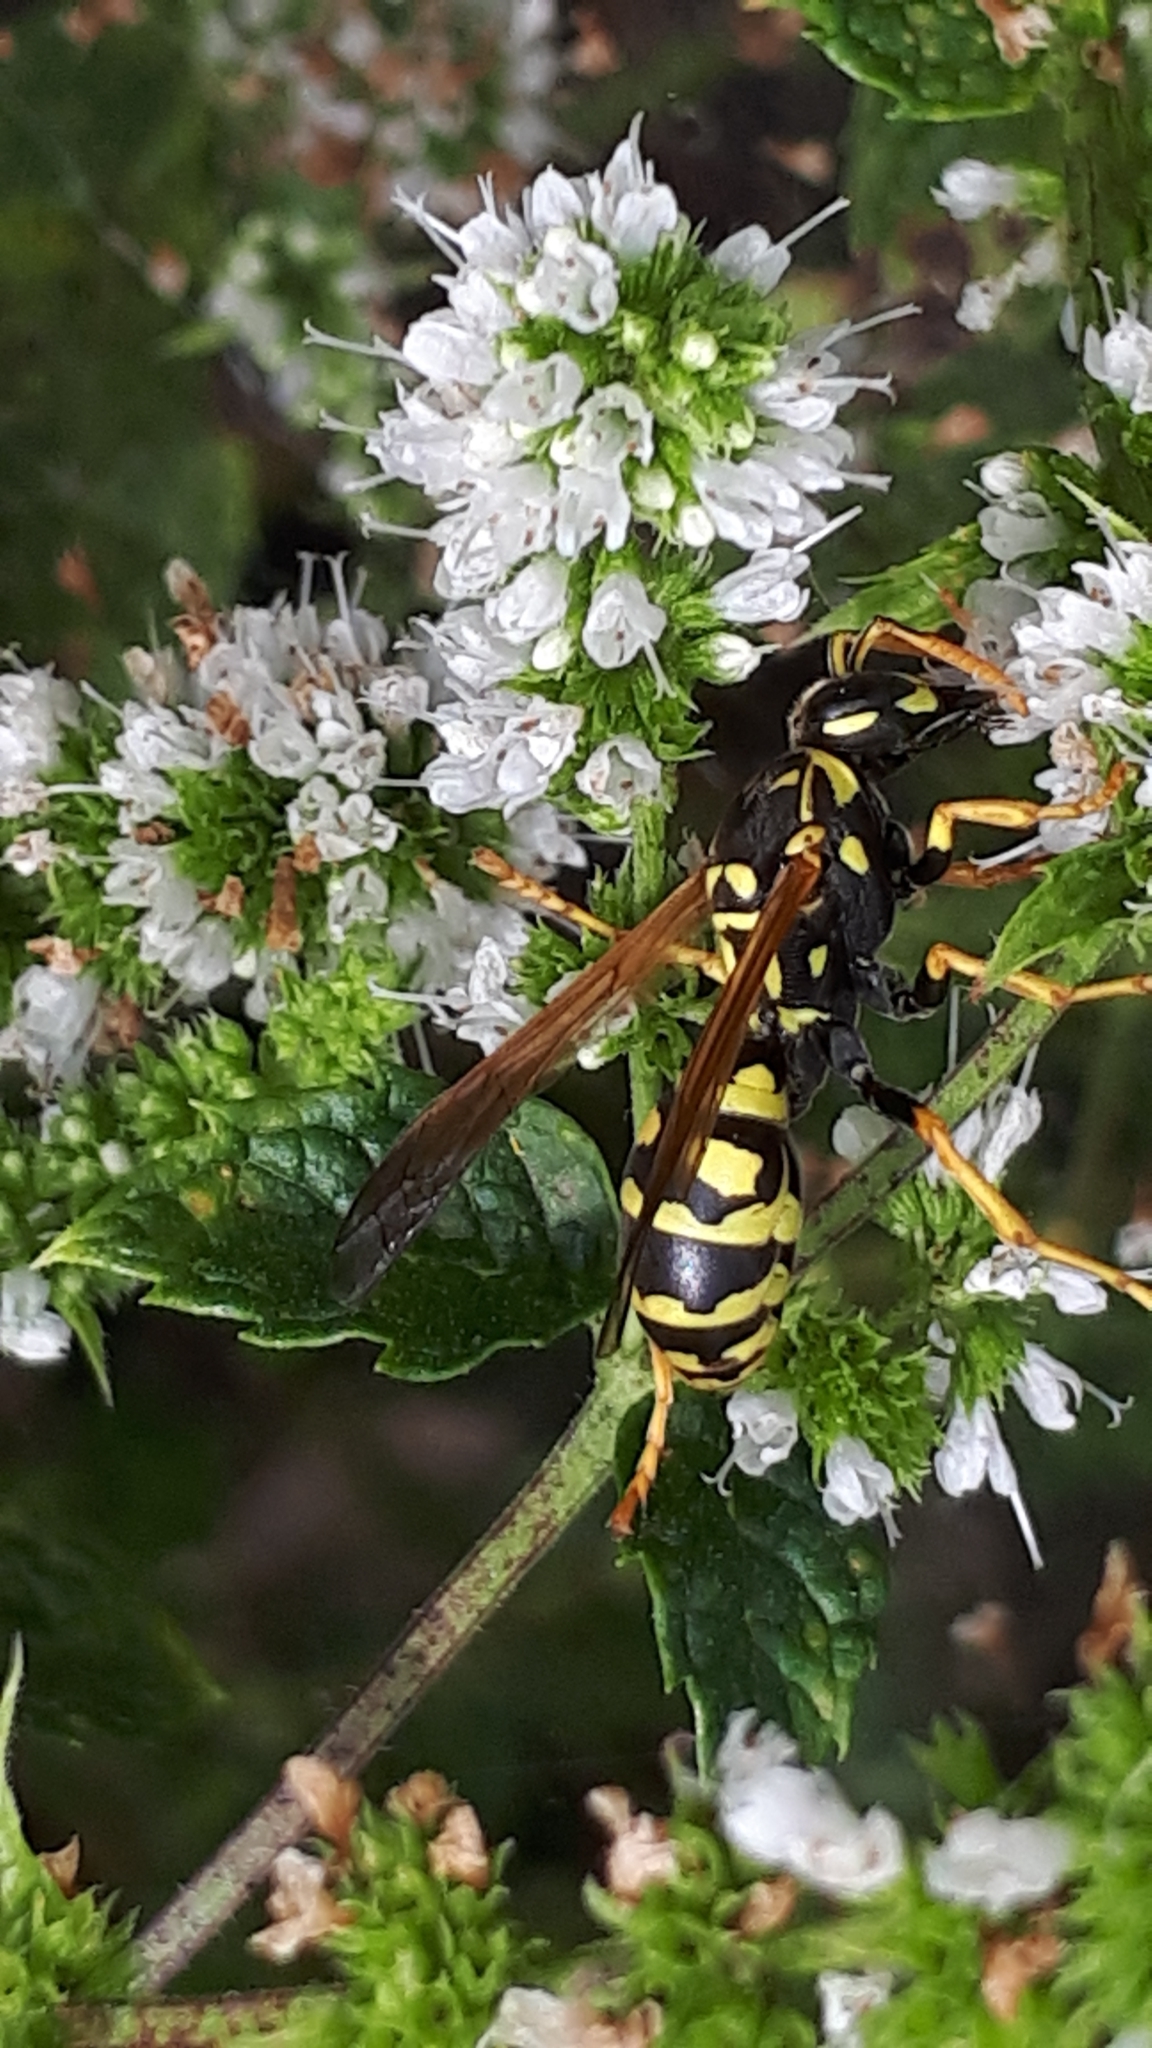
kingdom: Animalia
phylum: Arthropoda
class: Insecta
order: Hymenoptera
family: Eumenidae
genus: Polistes
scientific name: Polistes dominula
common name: Paper wasp
